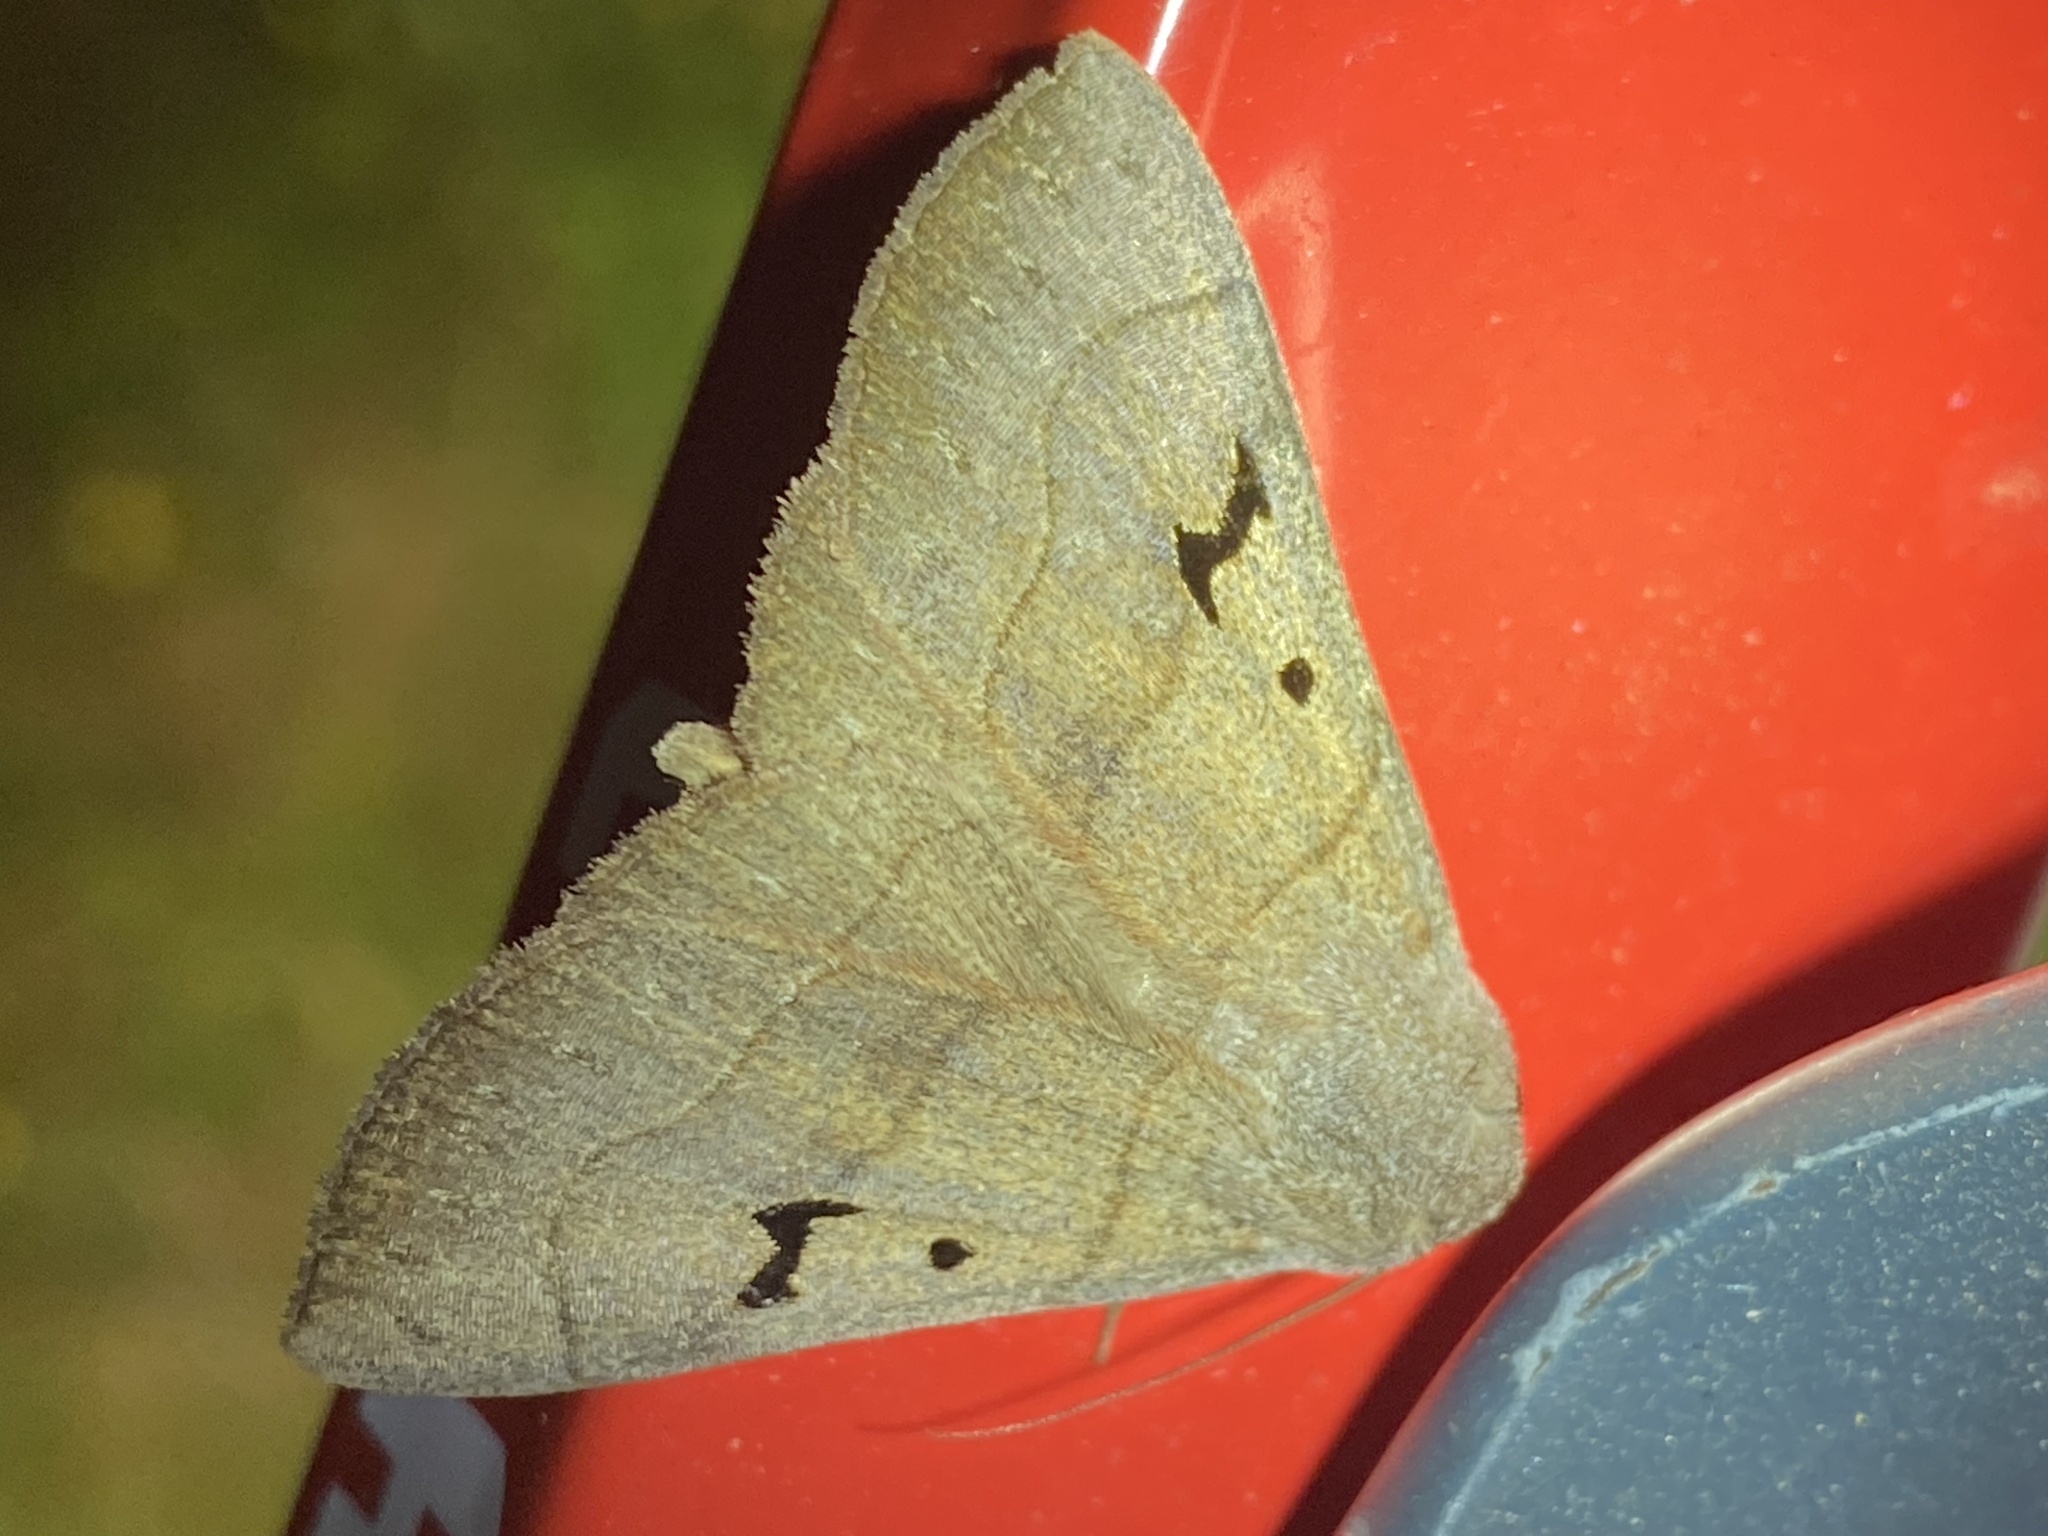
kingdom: Animalia
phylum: Arthropoda
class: Insecta
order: Lepidoptera
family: Erebidae
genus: Panopoda
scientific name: Panopoda carneicosta
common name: Brown panopoda moth
